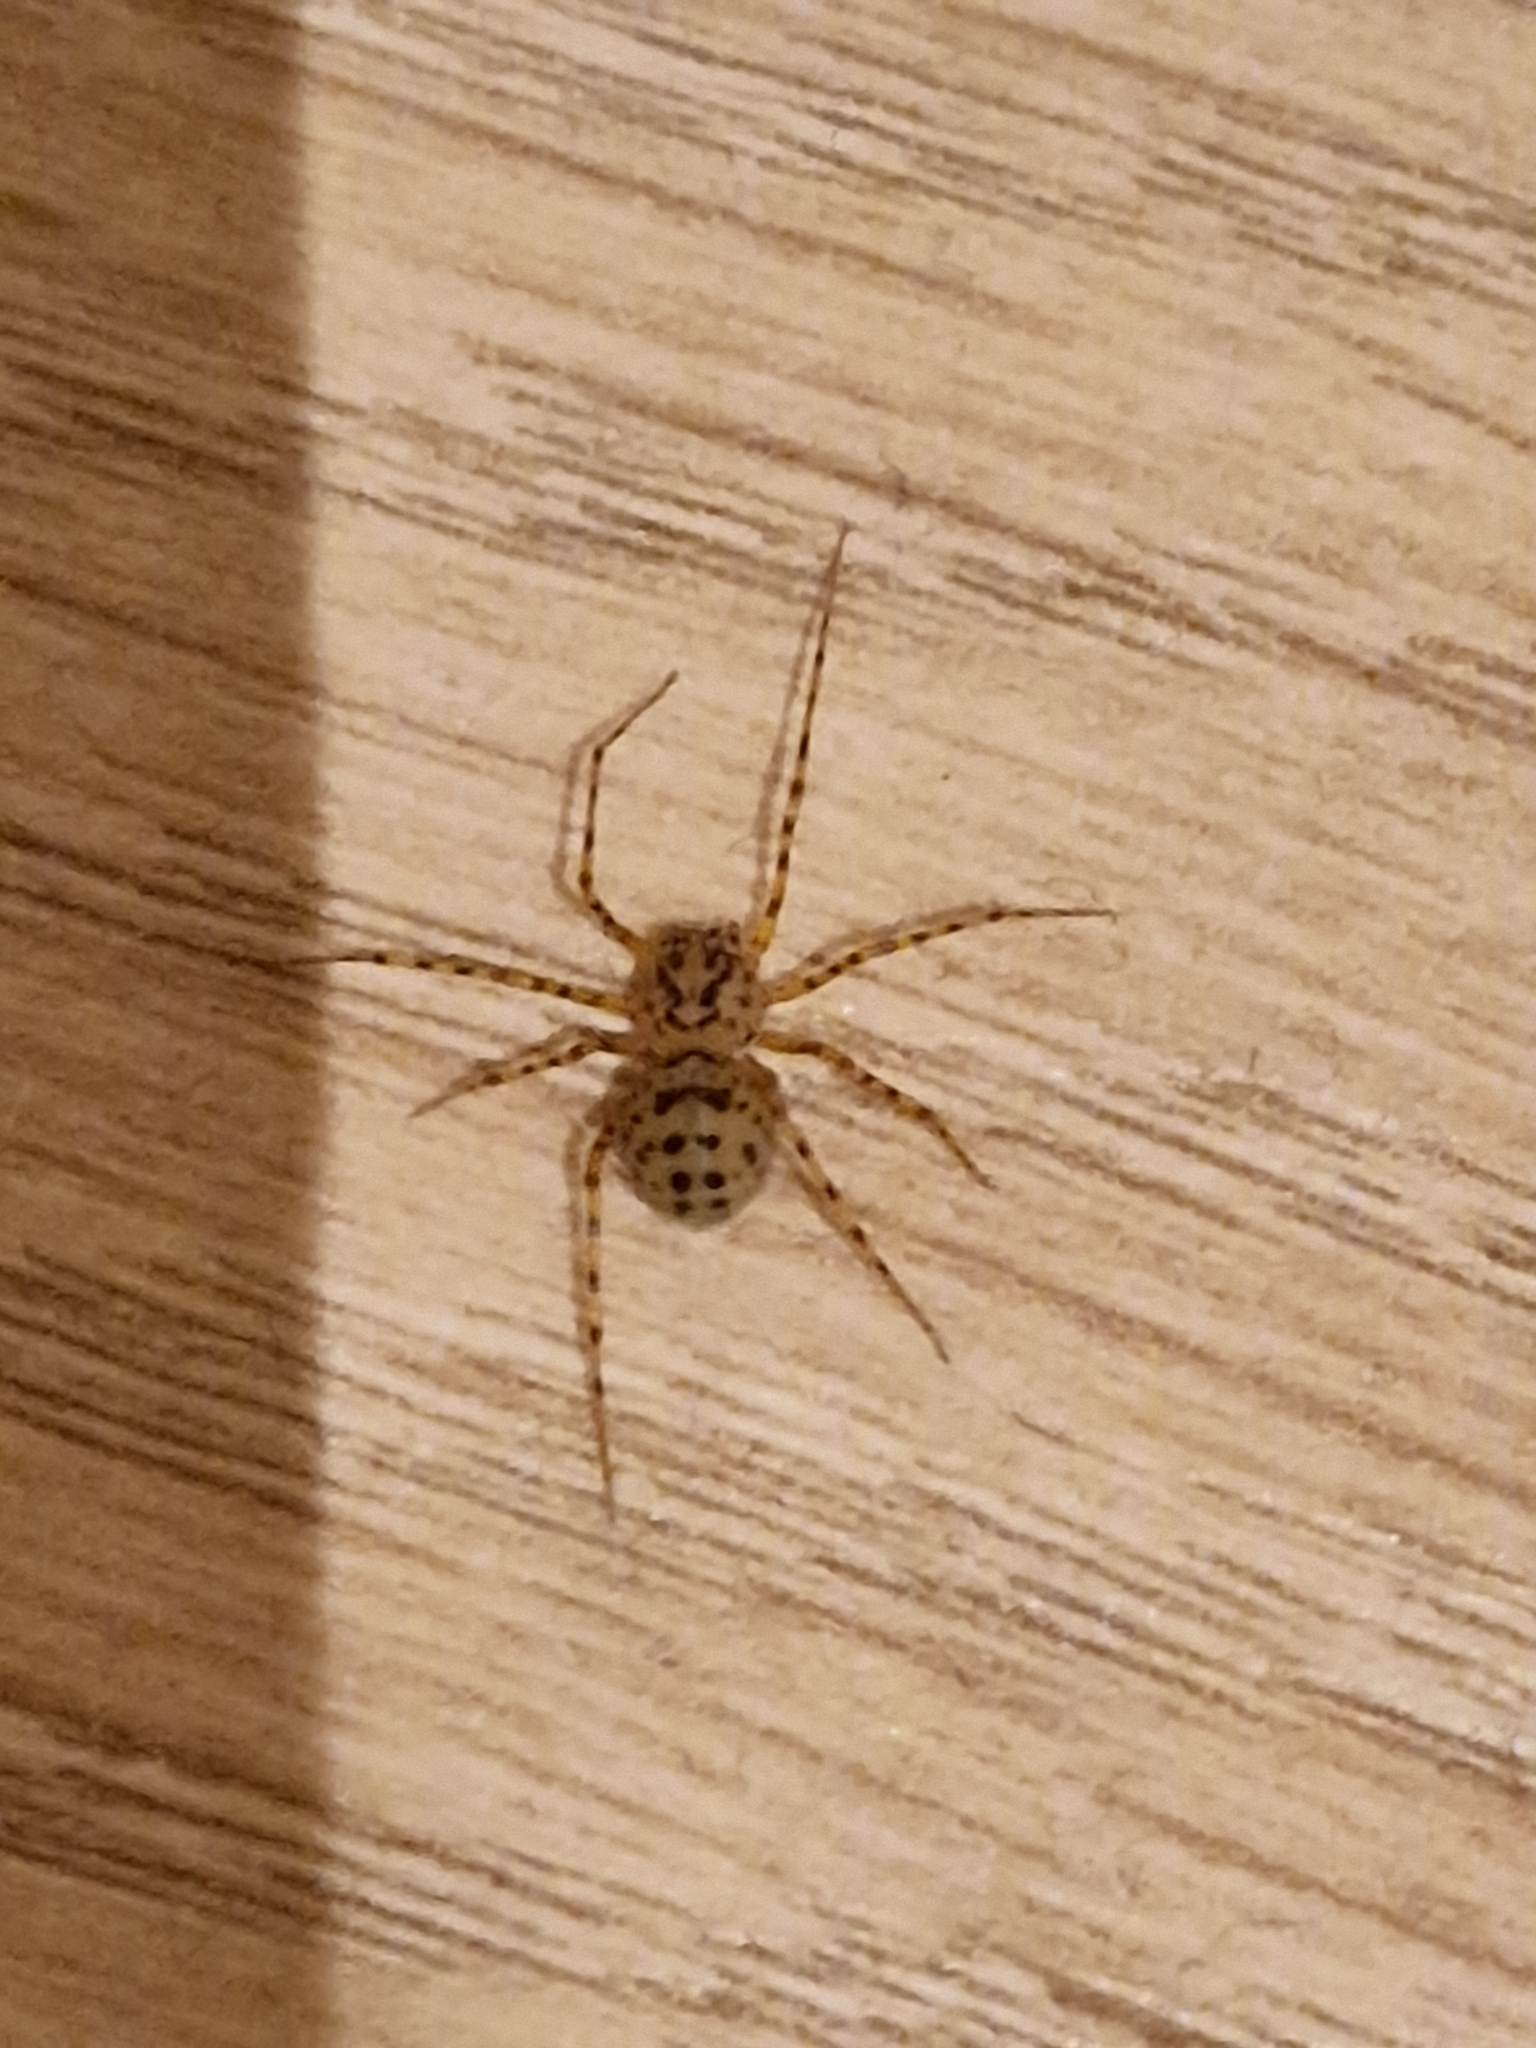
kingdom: Animalia
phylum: Arthropoda
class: Arachnida
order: Araneae
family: Scytodidae
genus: Scytodes
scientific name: Scytodes thoracica
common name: Spitting spider
